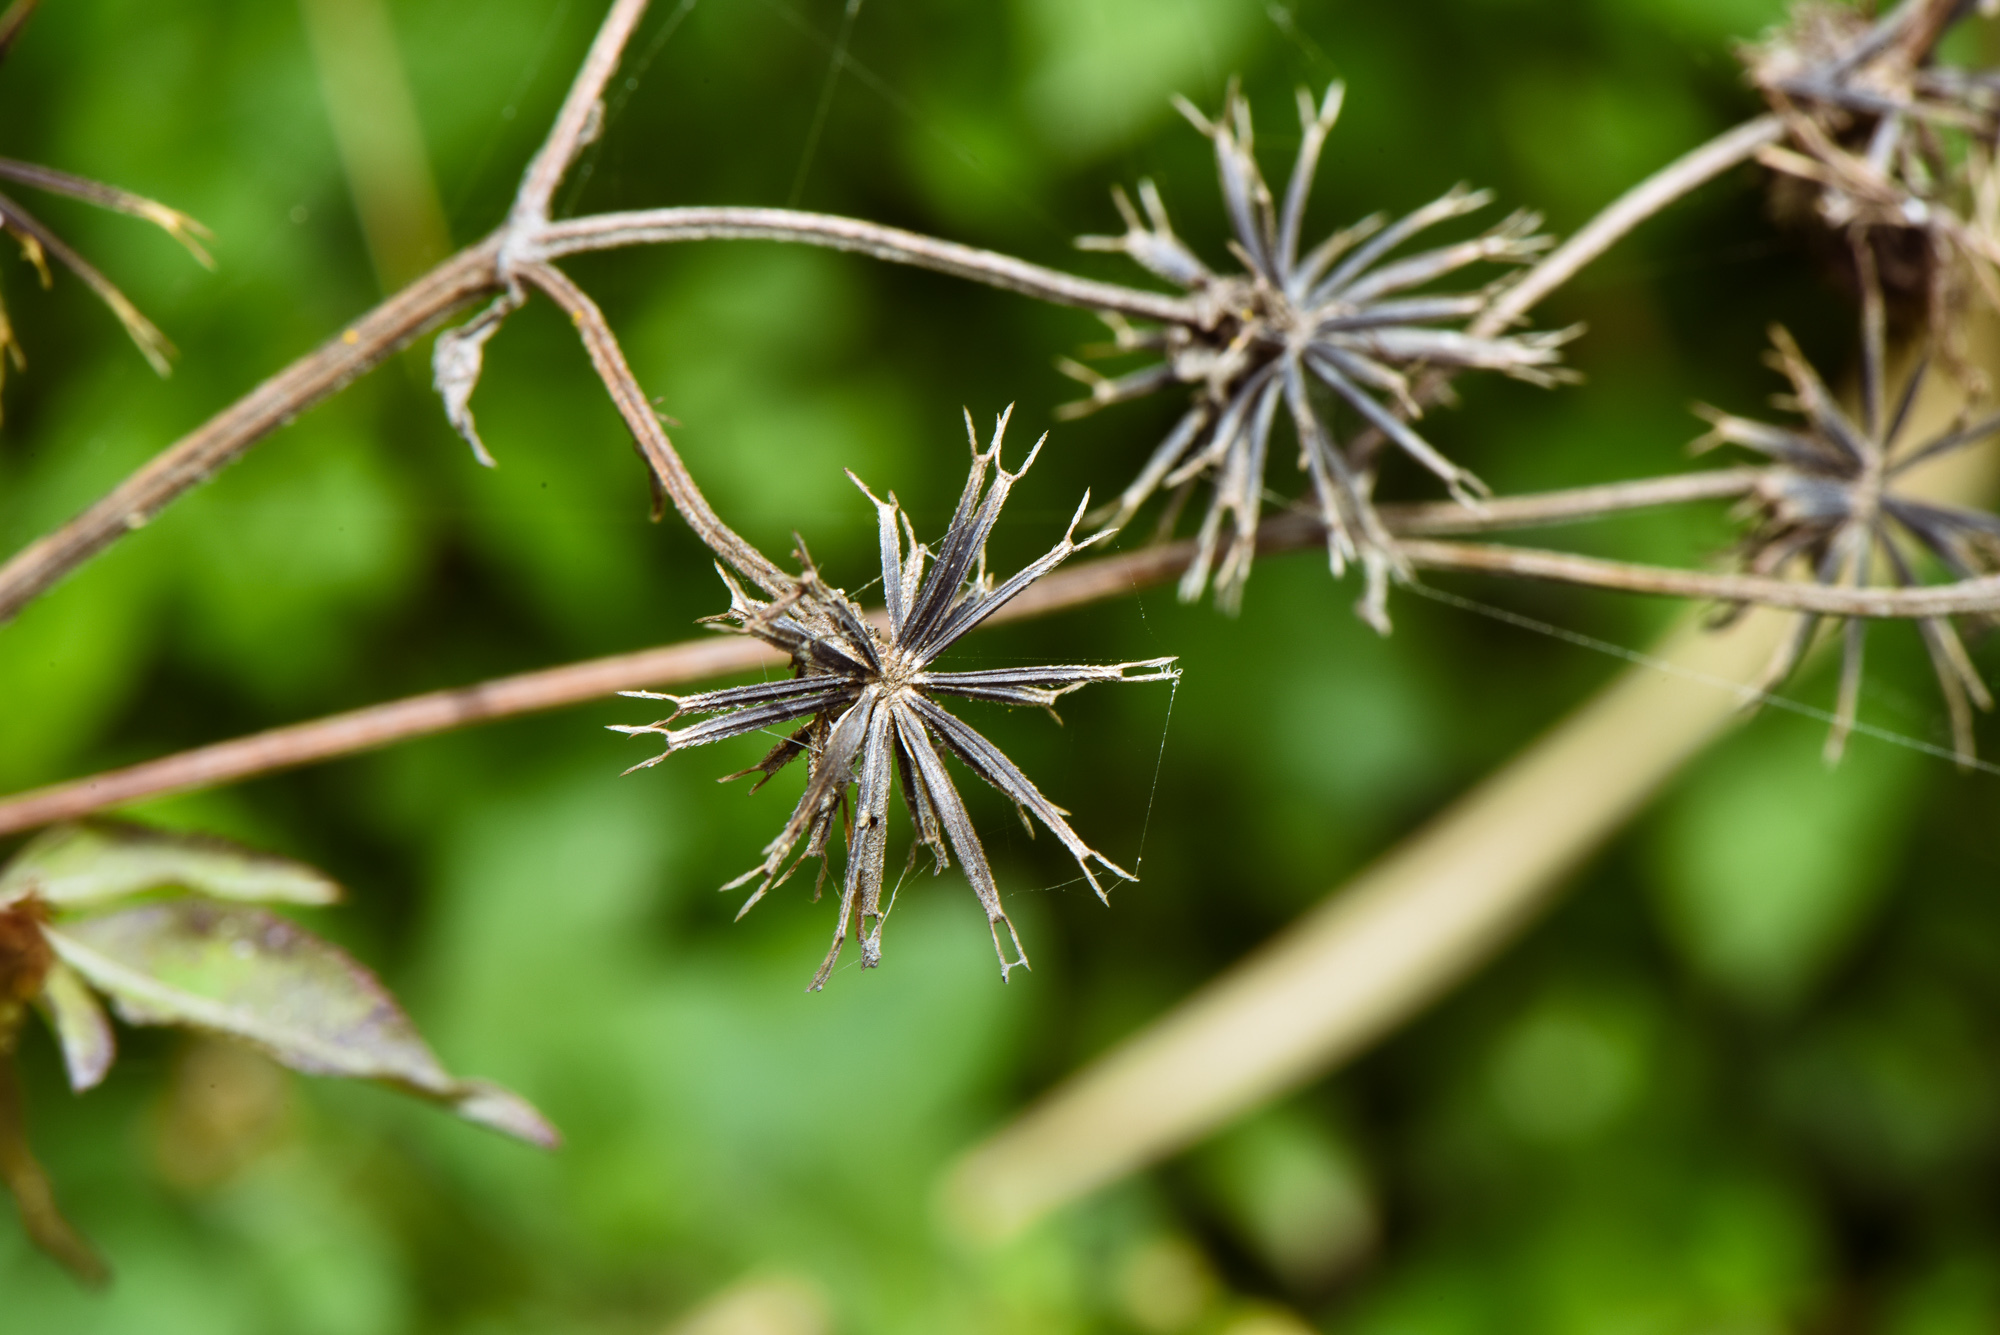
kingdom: Plantae
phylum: Tracheophyta
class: Magnoliopsida
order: Asterales
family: Asteraceae
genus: Bidens
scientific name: Bidens alba
